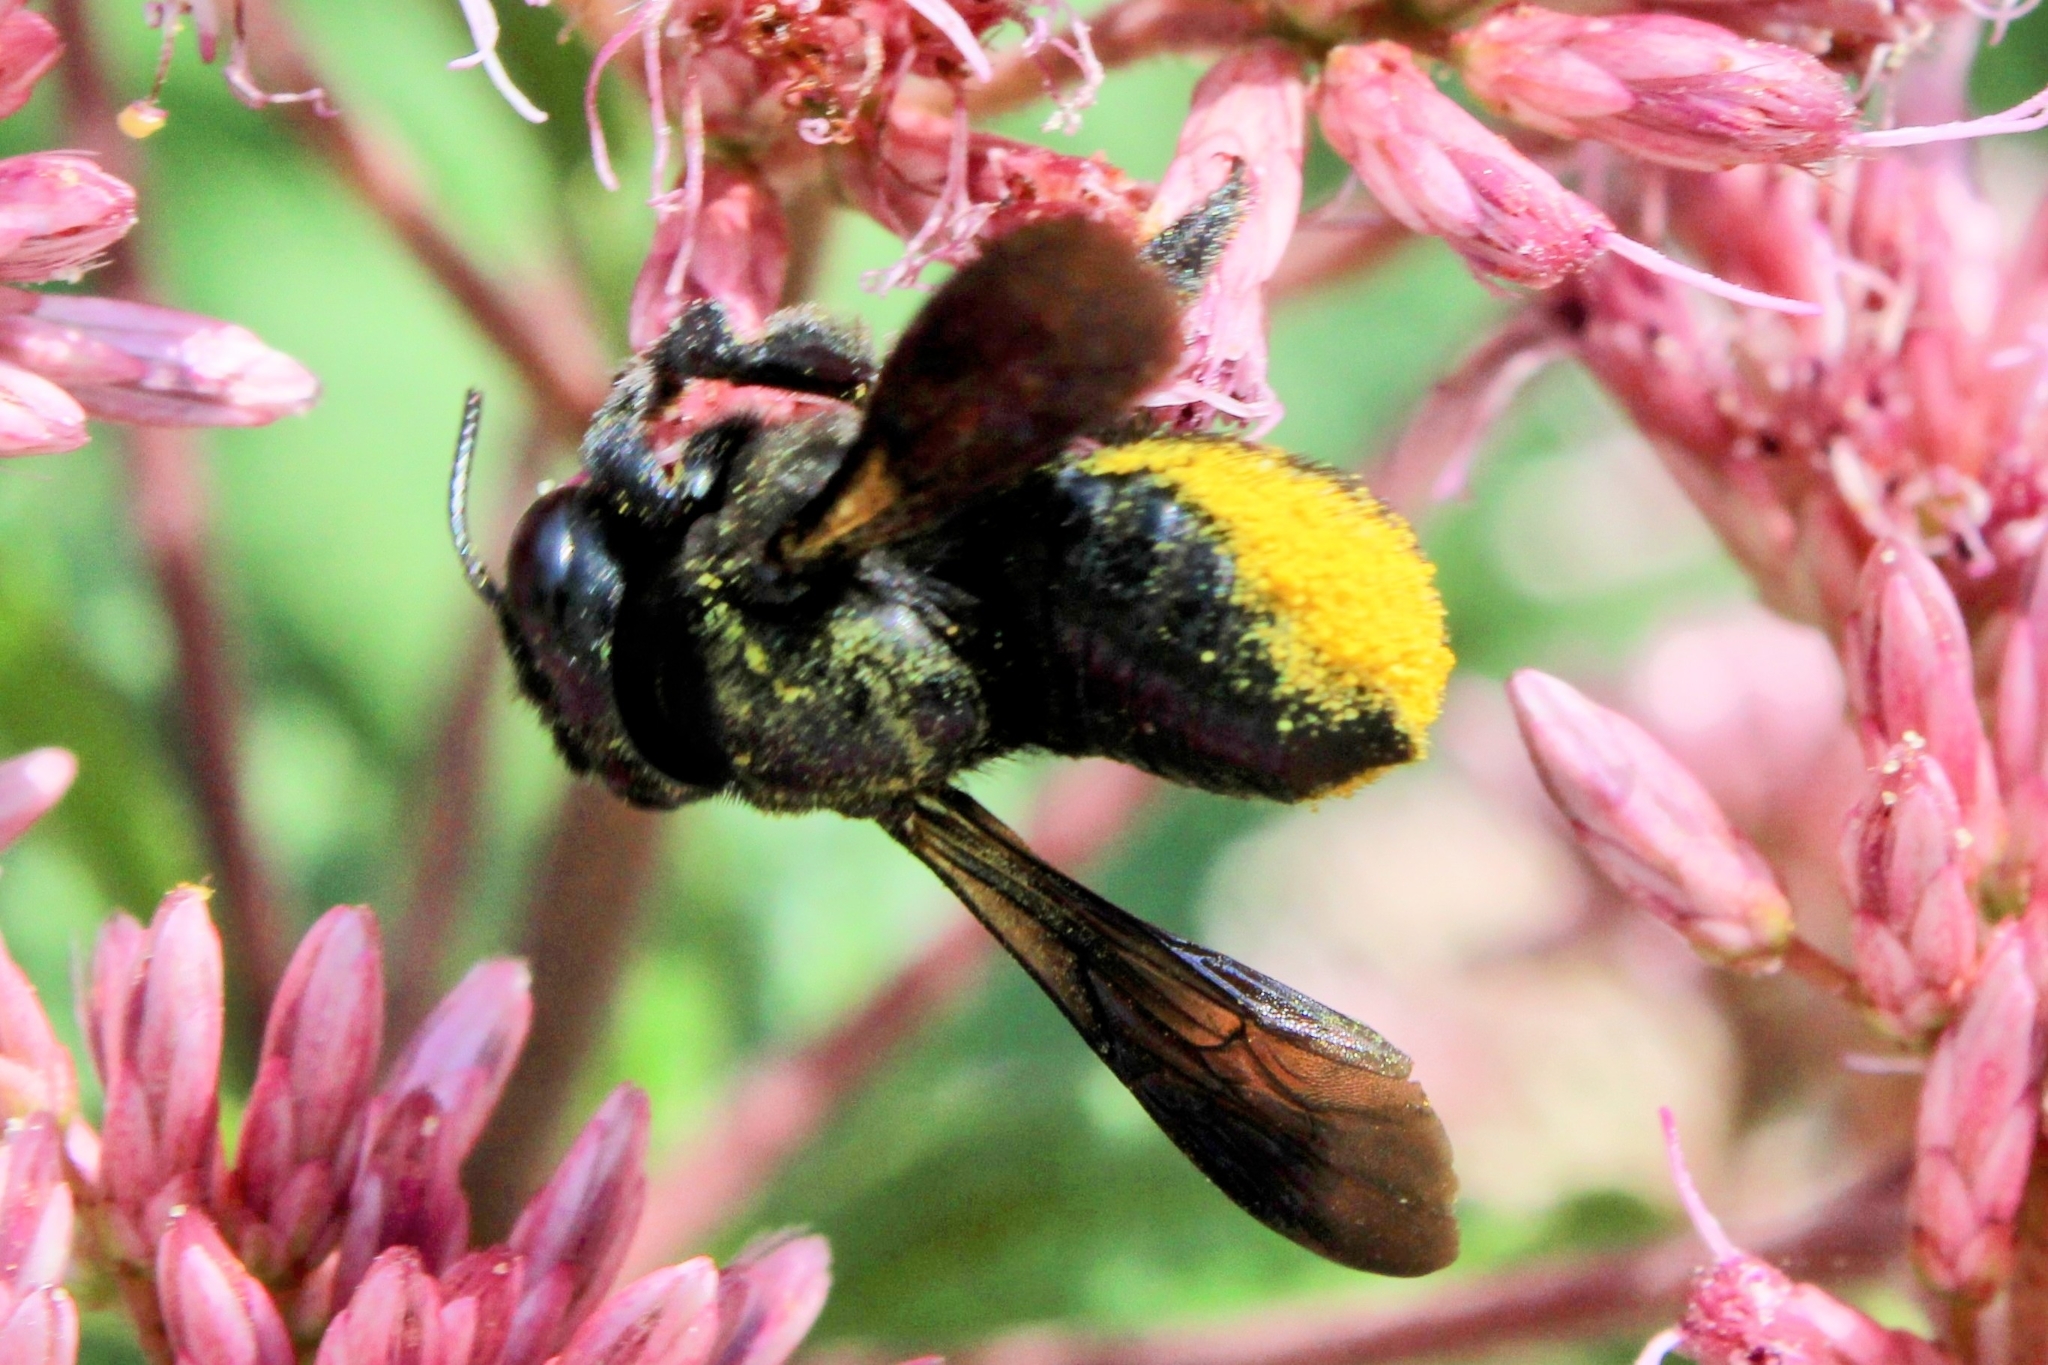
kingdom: Animalia
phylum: Arthropoda
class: Insecta
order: Hymenoptera
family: Megachilidae
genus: Megachile
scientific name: Megachile xylocopoides
